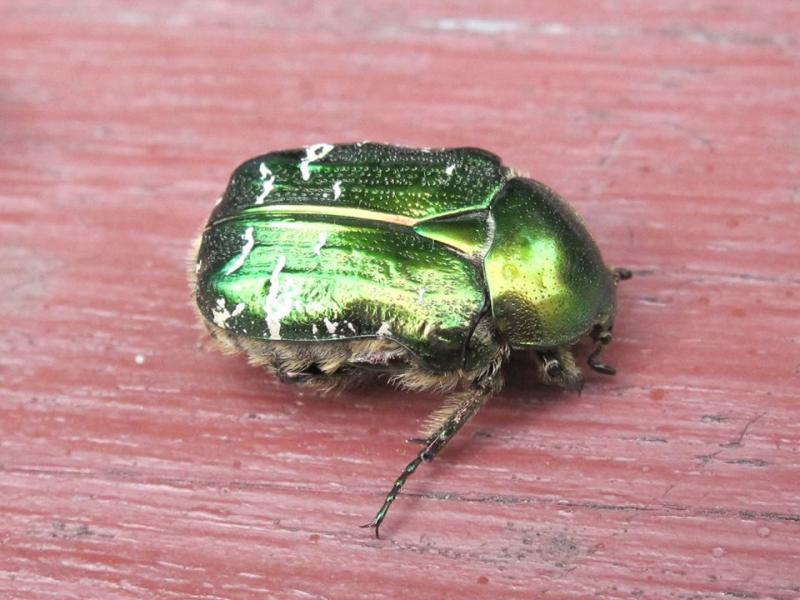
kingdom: Animalia
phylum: Arthropoda
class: Insecta
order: Coleoptera
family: Scarabaeidae
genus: Cetonia
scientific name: Cetonia aurata
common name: Rose chafer
